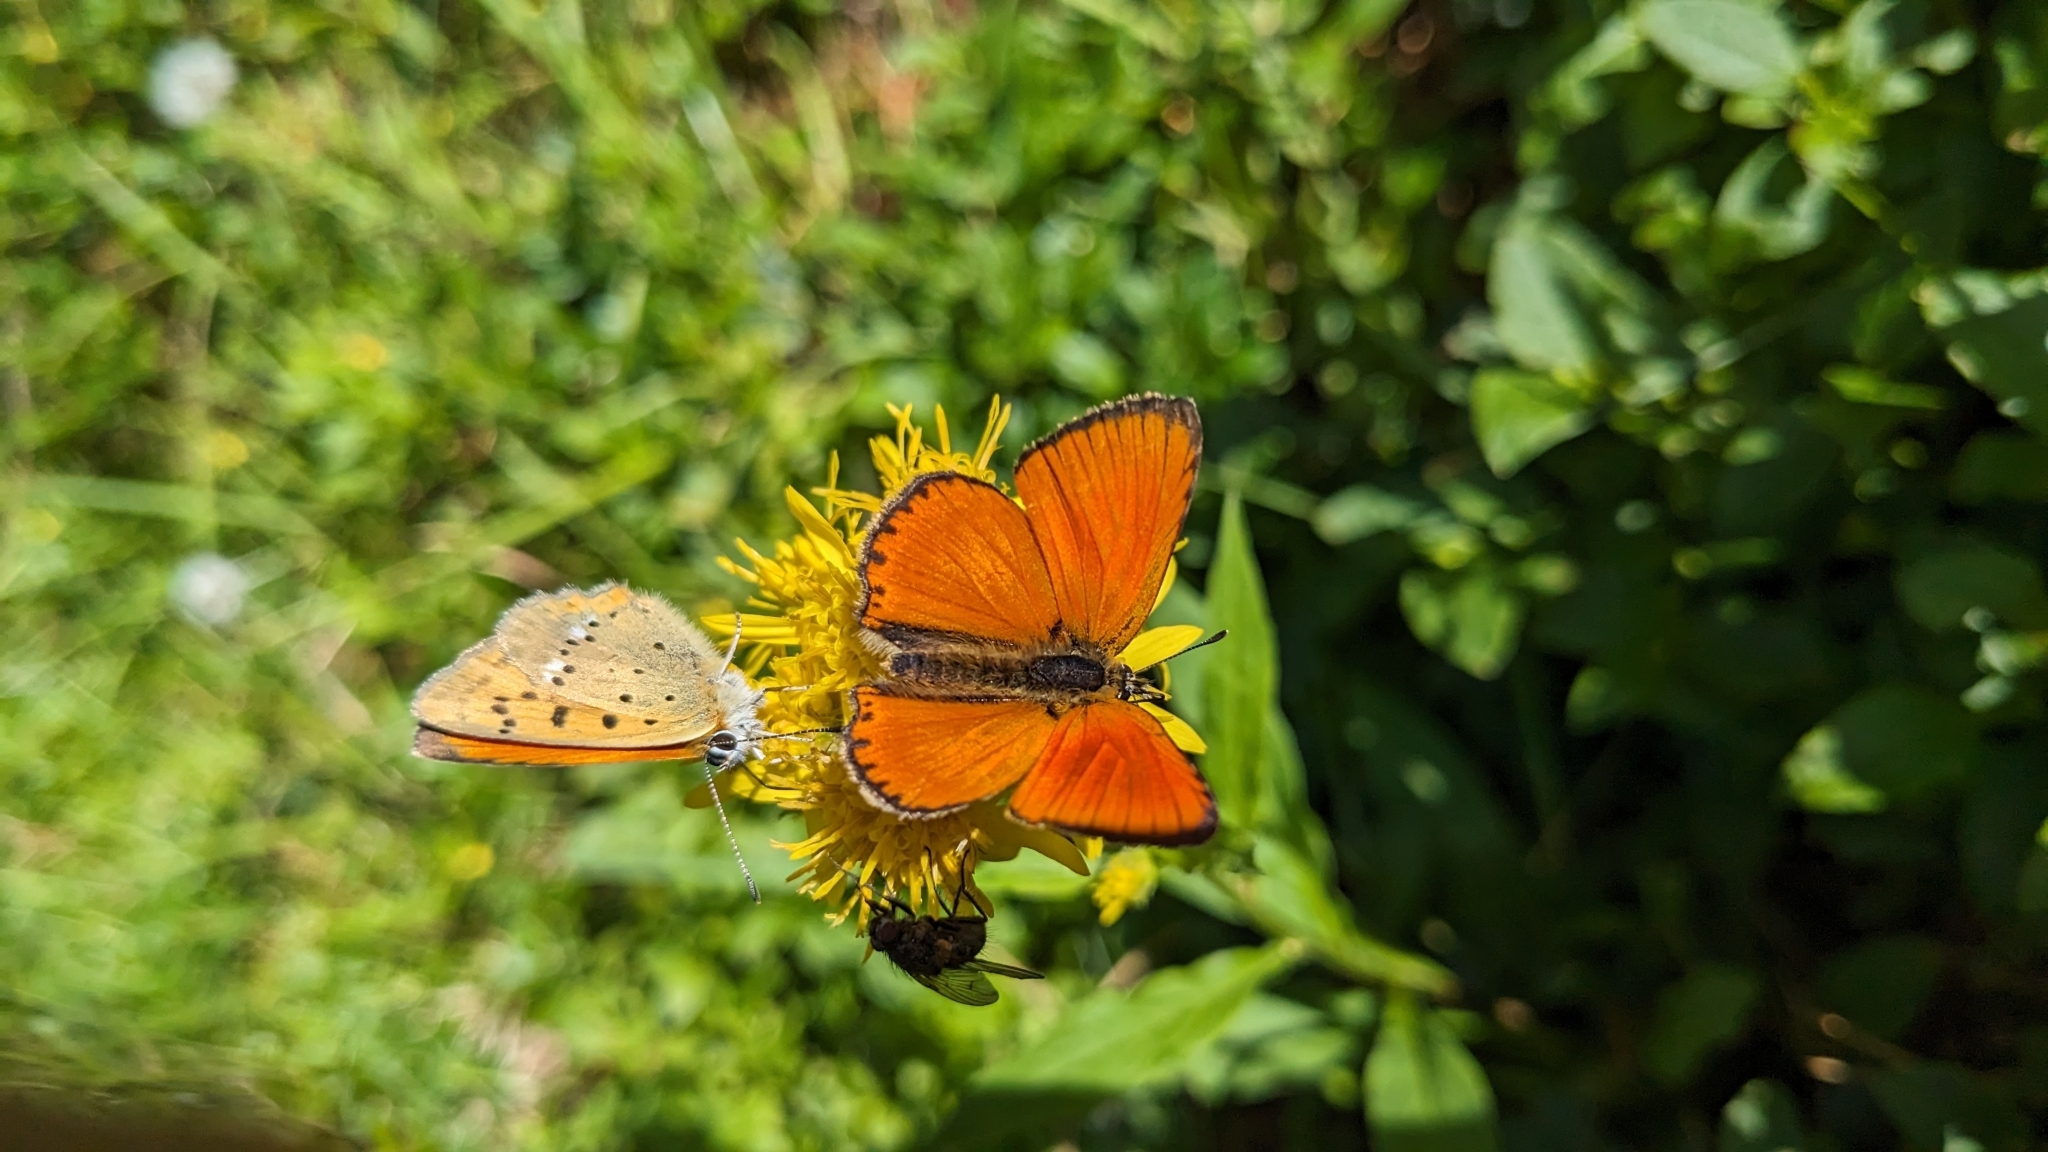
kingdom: Animalia
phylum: Arthropoda
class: Insecta
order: Lepidoptera
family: Lycaenidae
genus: Lycaena
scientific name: Lycaena virgaureae
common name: Scarce copper
